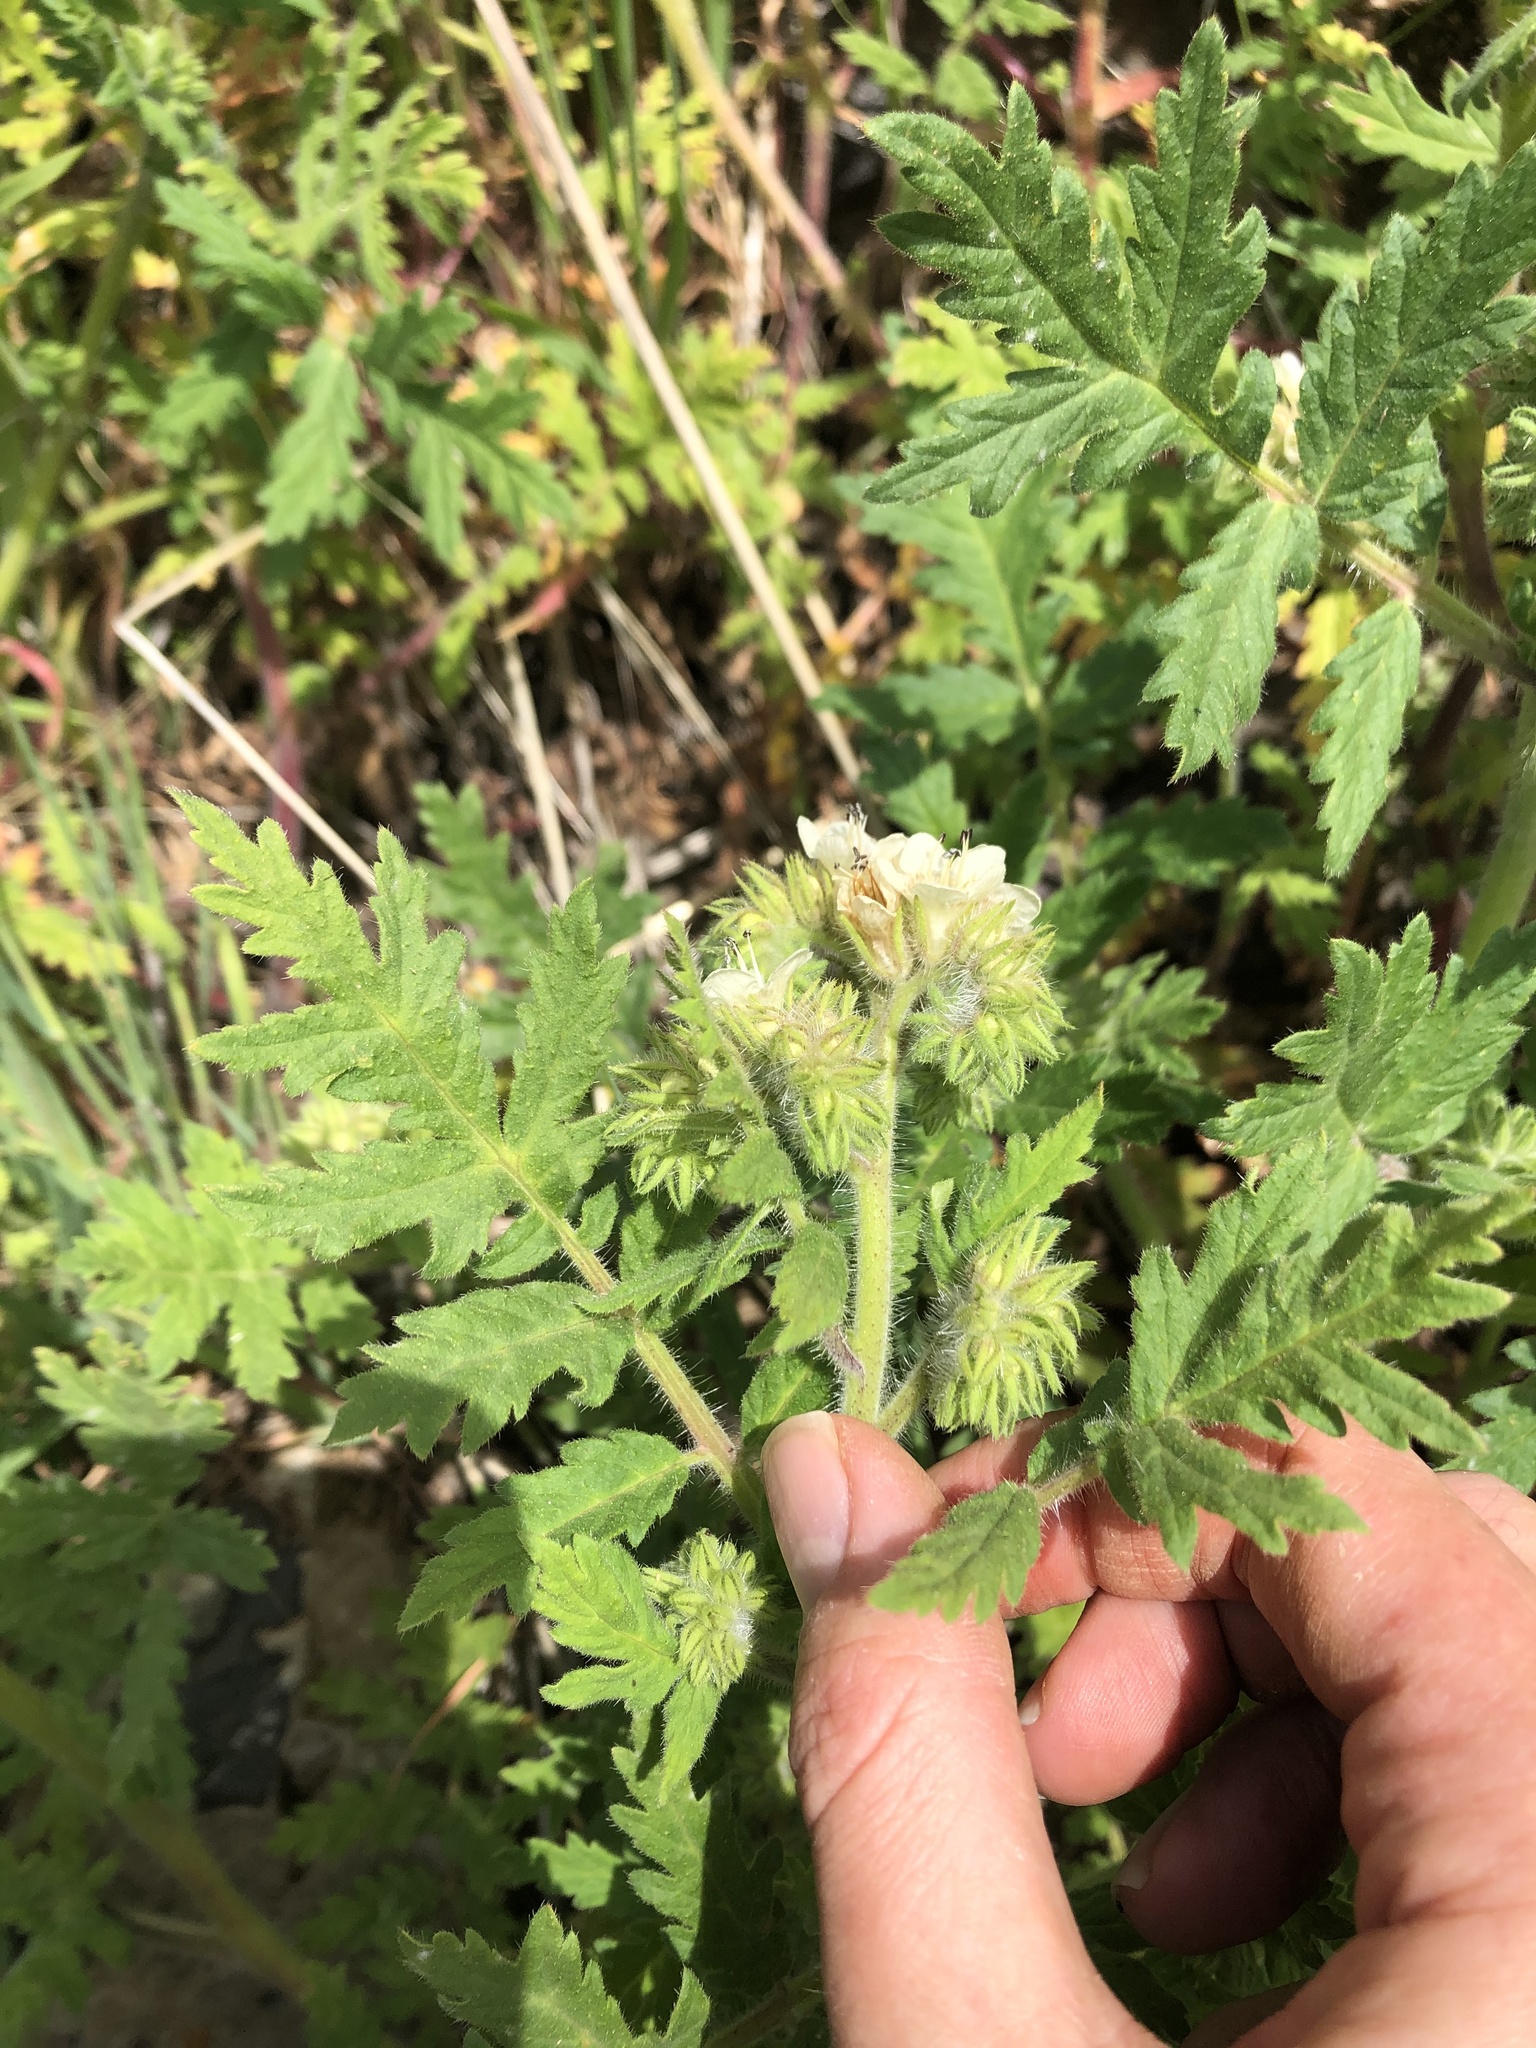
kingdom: Plantae
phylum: Tracheophyta
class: Magnoliopsida
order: Boraginales
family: Hydrophyllaceae
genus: Phacelia
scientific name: Phacelia cicutaria
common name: Caterpillar phacelia
